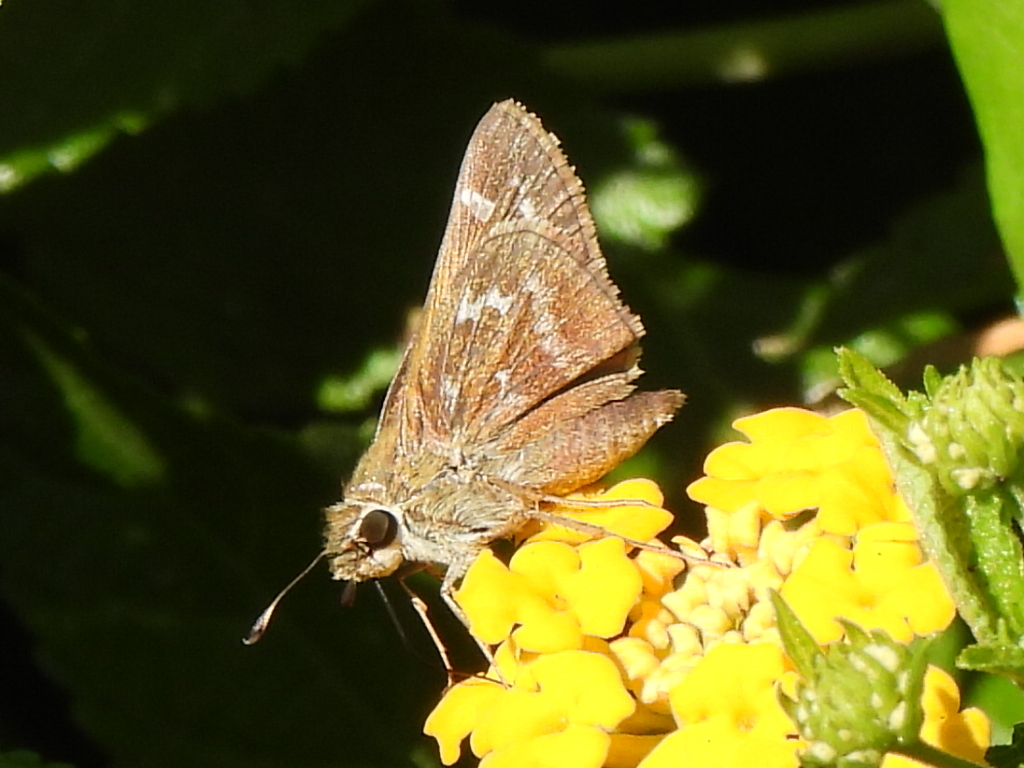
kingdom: Animalia
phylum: Arthropoda
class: Insecta
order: Lepidoptera
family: Hesperiidae
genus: Atalopedes
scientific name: Atalopedes
